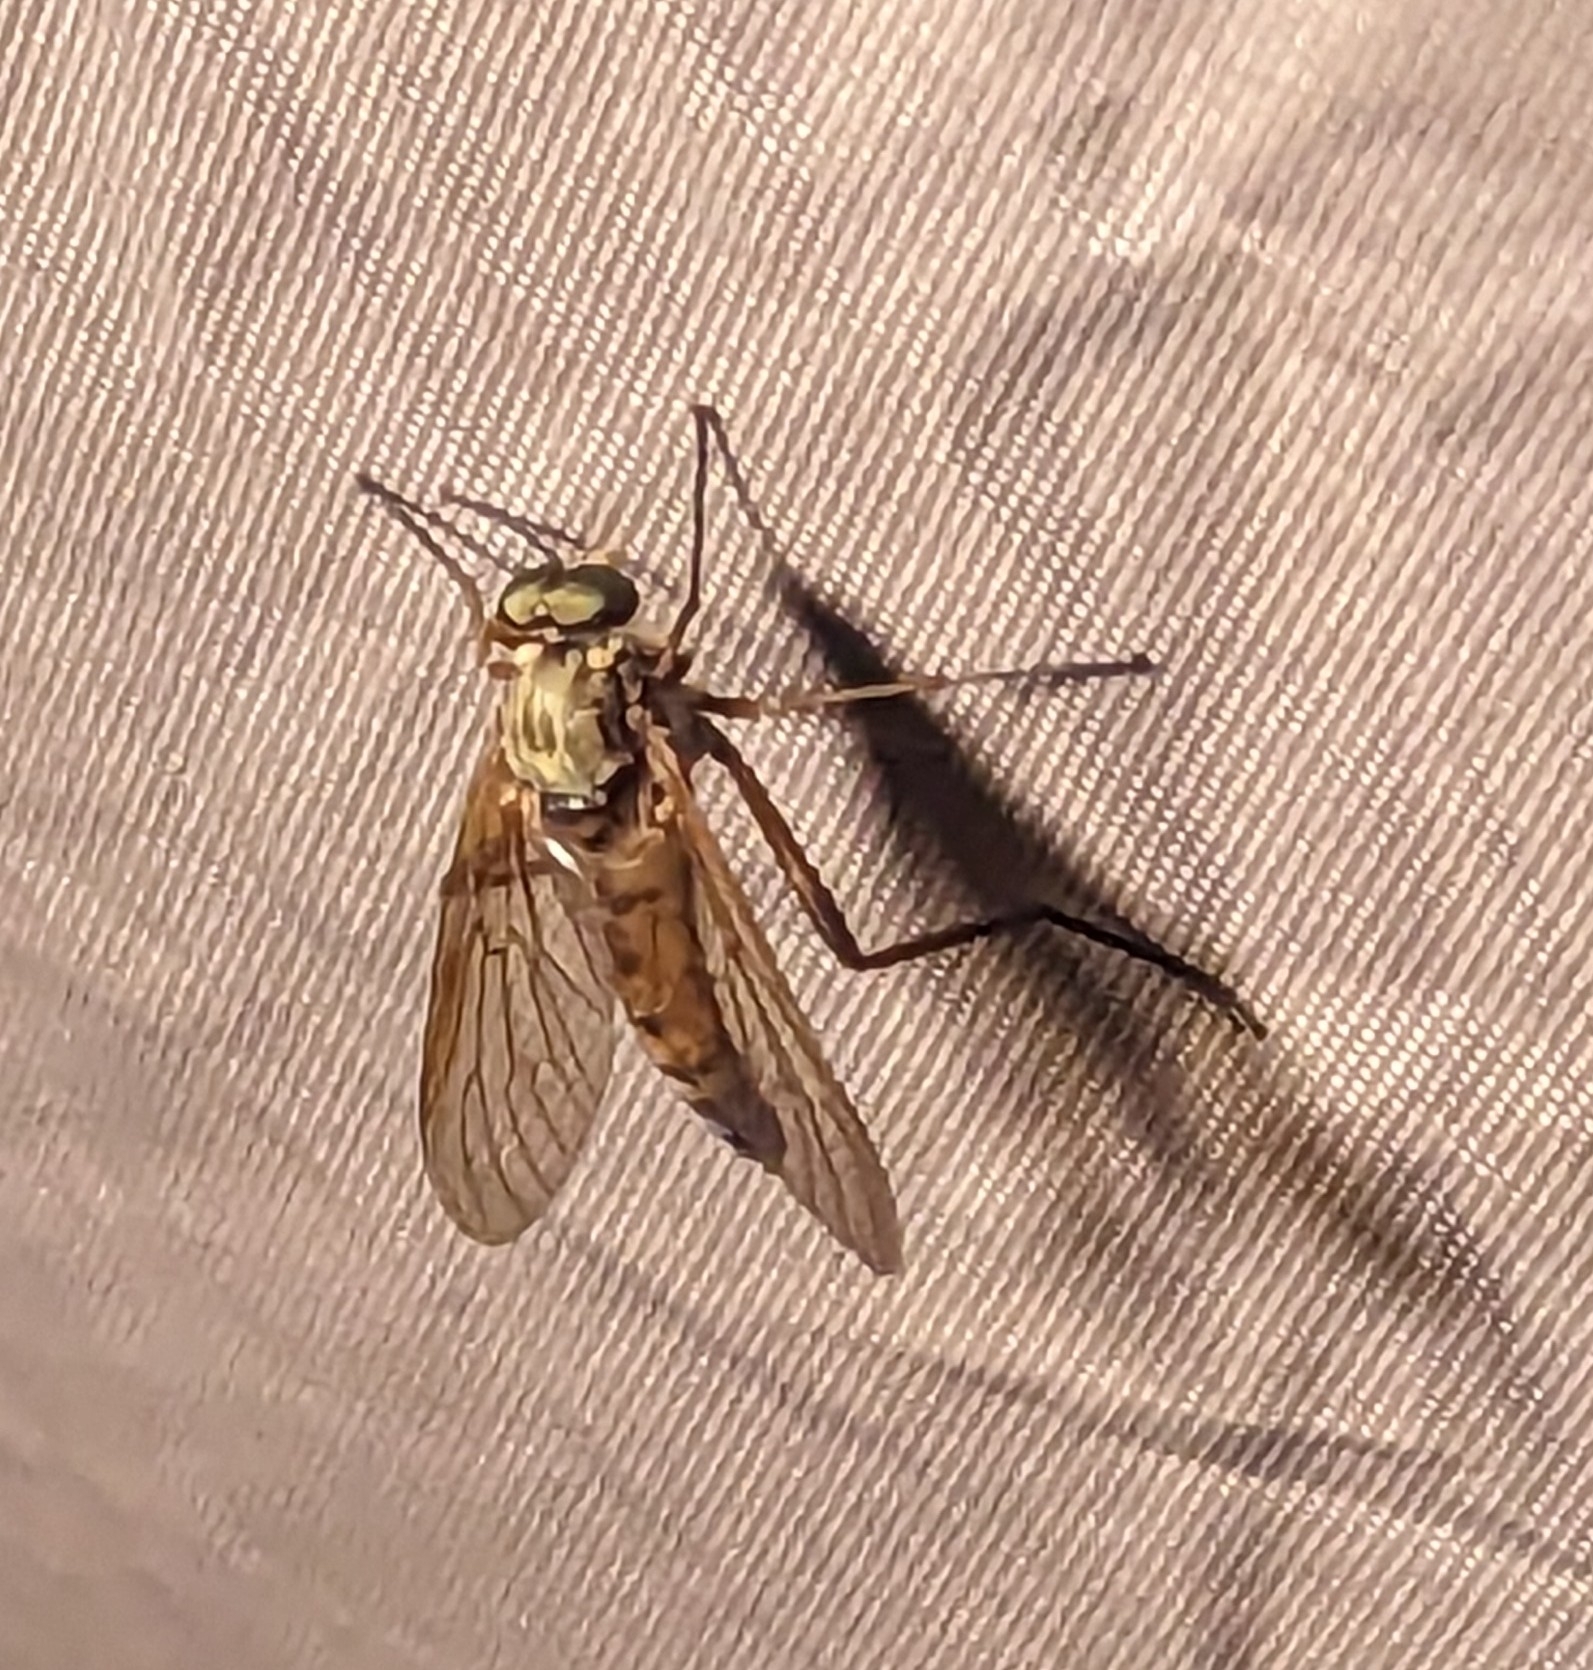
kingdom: Animalia
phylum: Arthropoda
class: Insecta
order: Diptera
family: Rhagionidae
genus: Rhagio
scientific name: Rhagio tringaria
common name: Marsh snipefly
